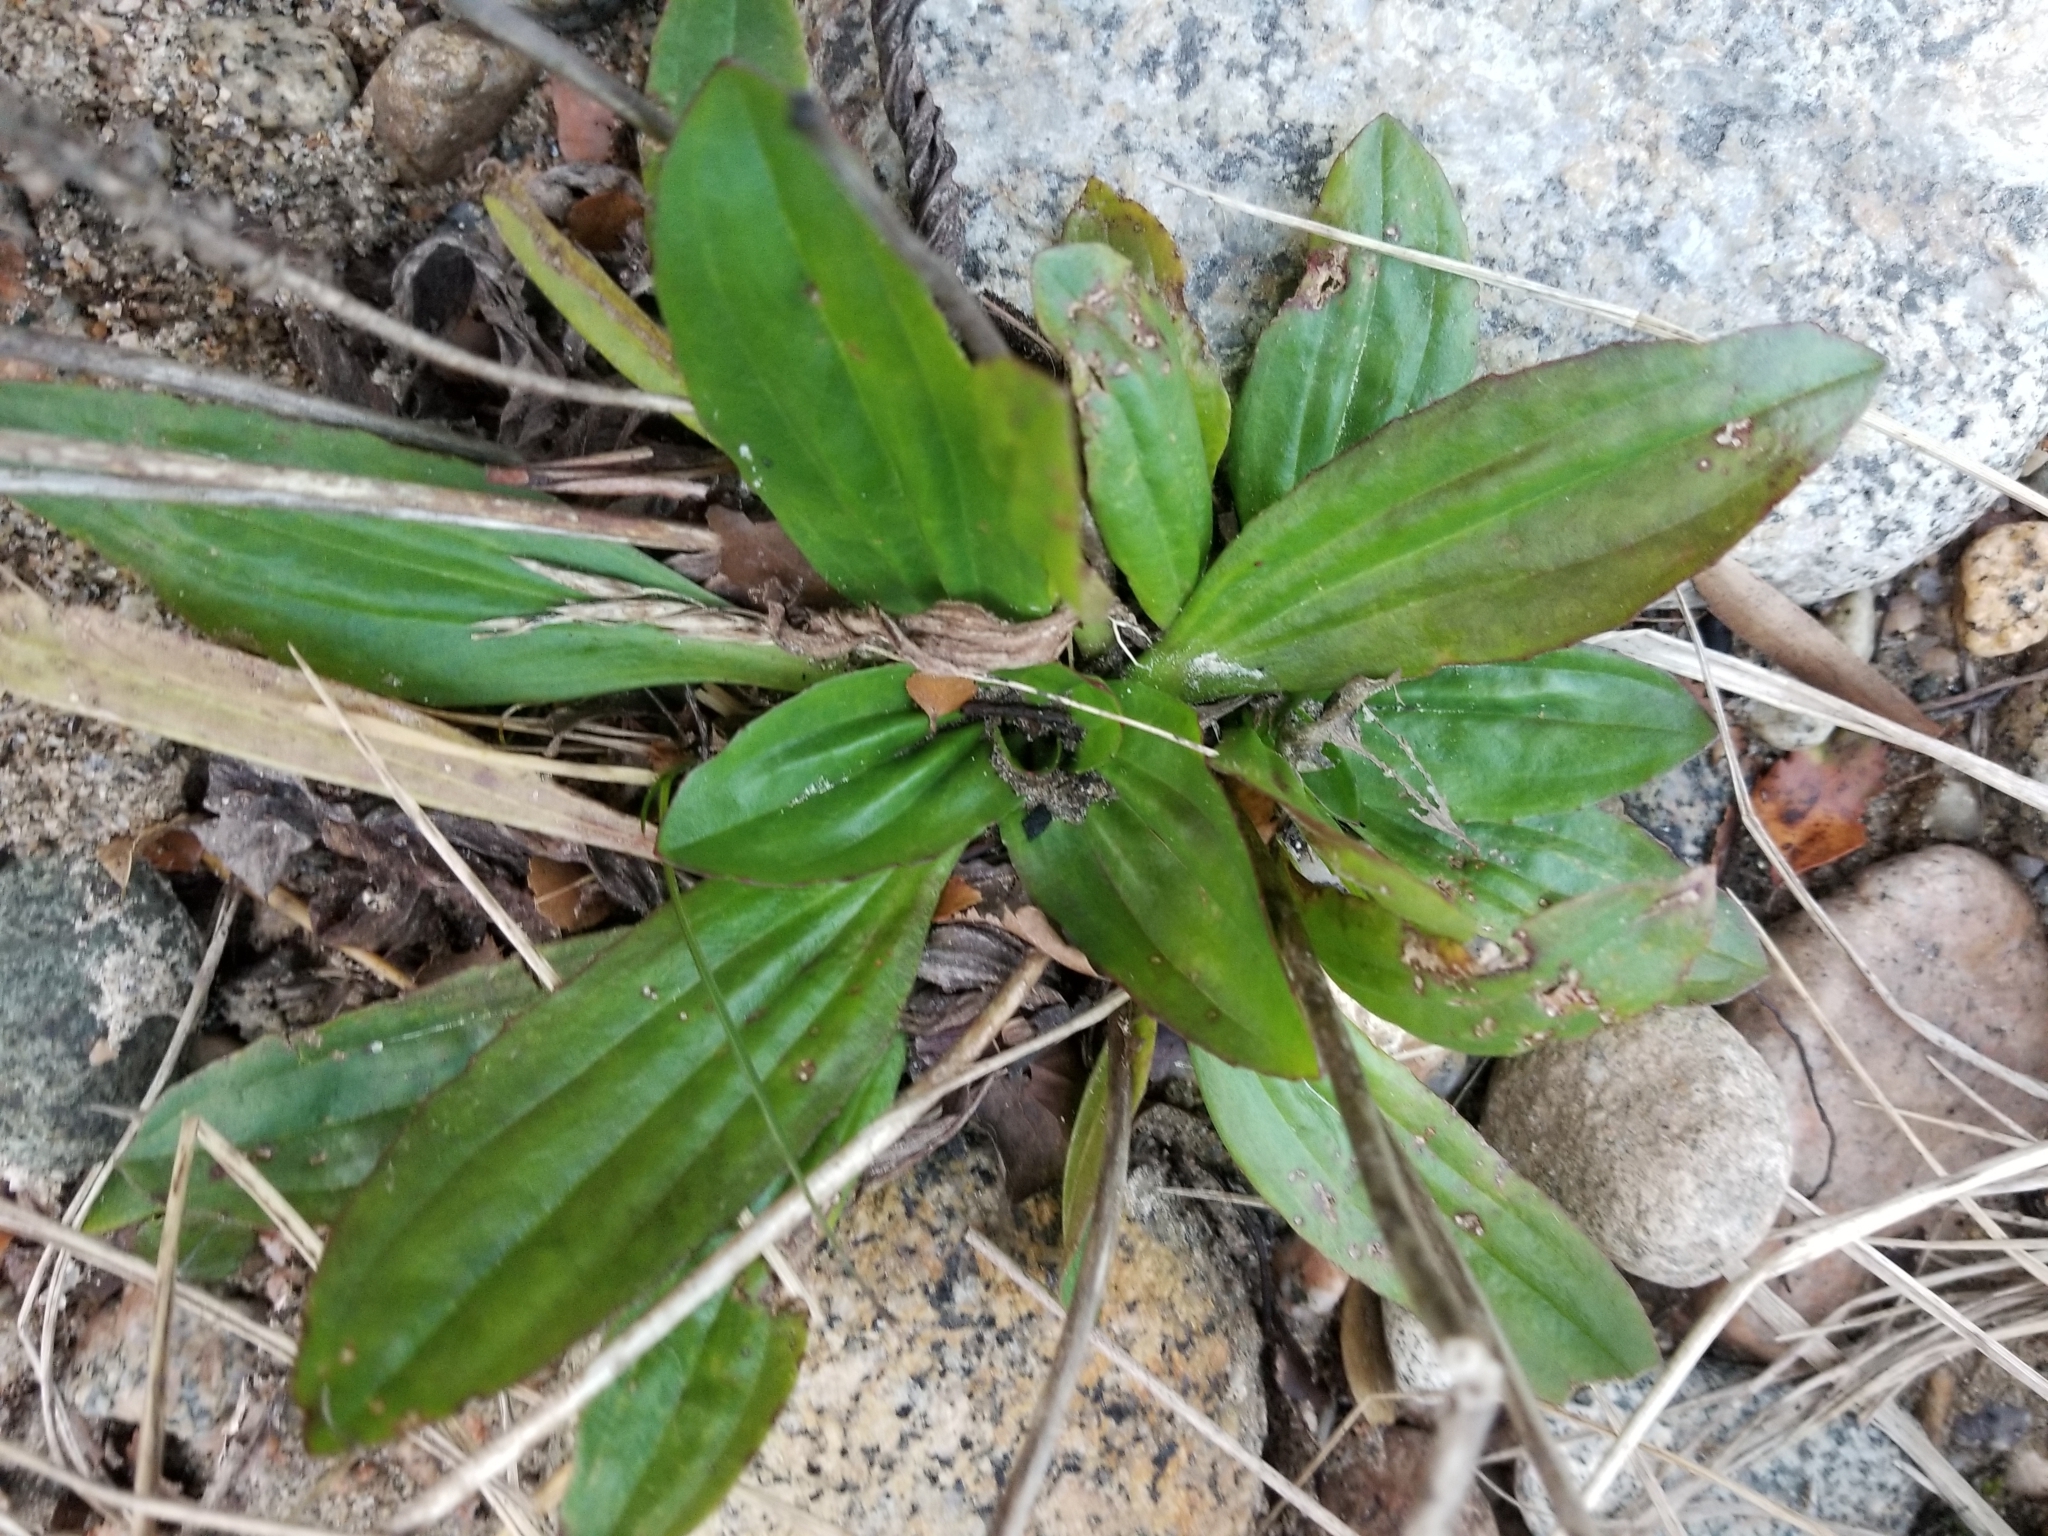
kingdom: Plantae
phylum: Tracheophyta
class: Magnoliopsida
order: Lamiales
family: Plantaginaceae
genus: Plantago
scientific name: Plantago australis
